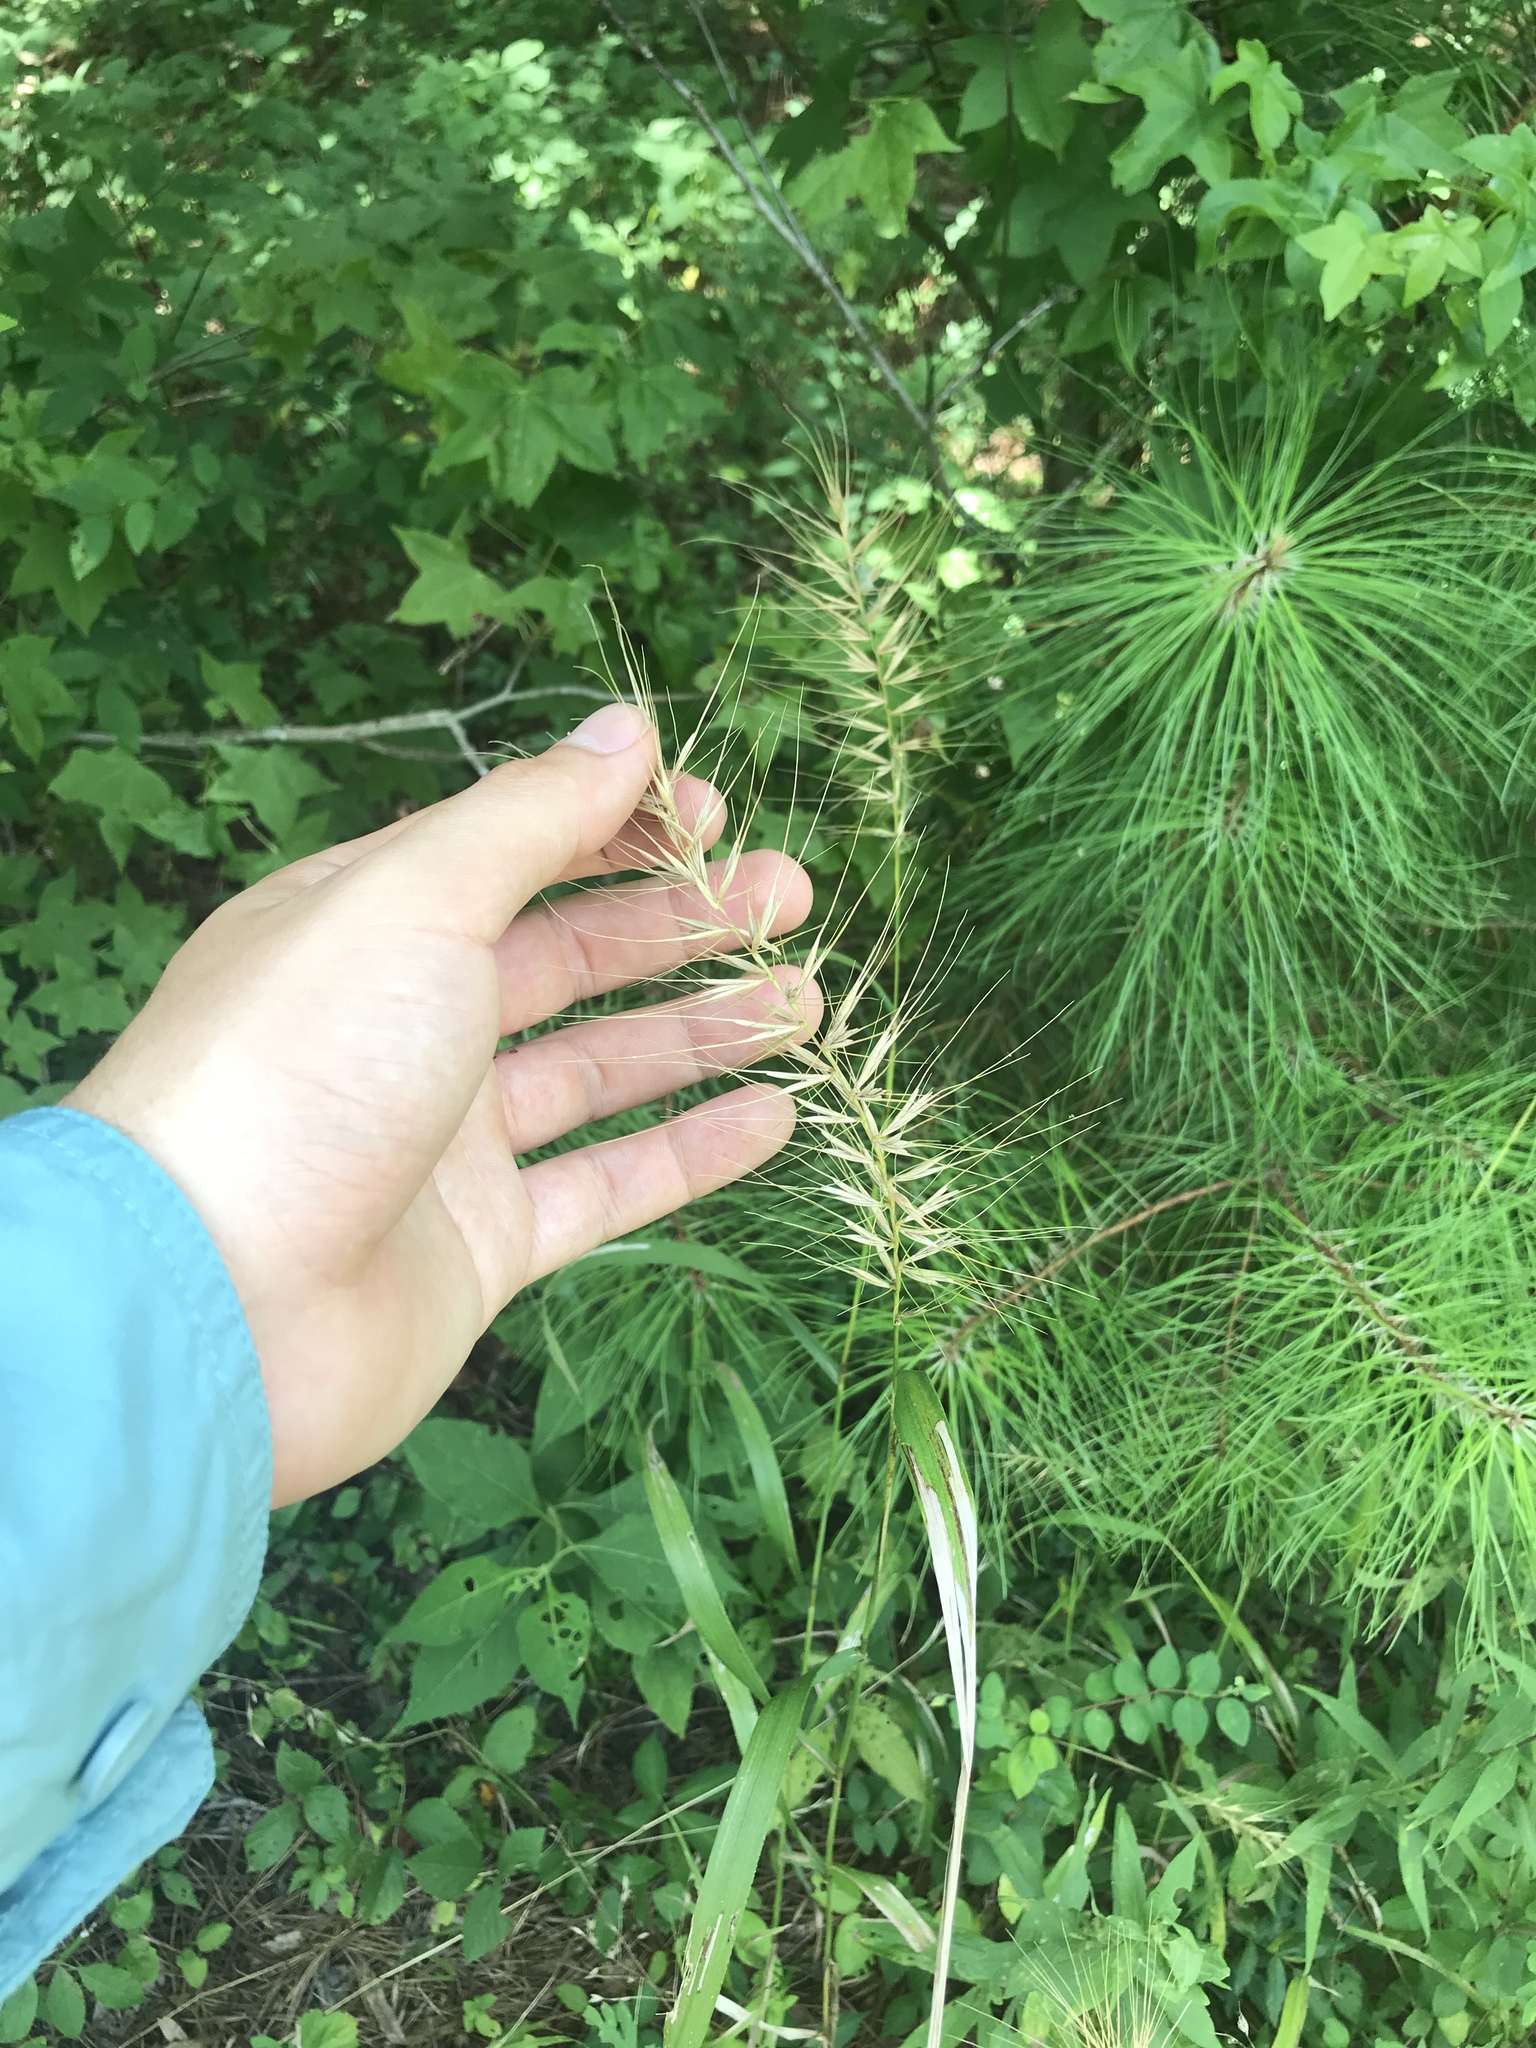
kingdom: Plantae
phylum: Tracheophyta
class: Liliopsida
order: Poales
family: Poaceae
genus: Elymus
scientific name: Elymus hystrix
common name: Bottlebrush grass
